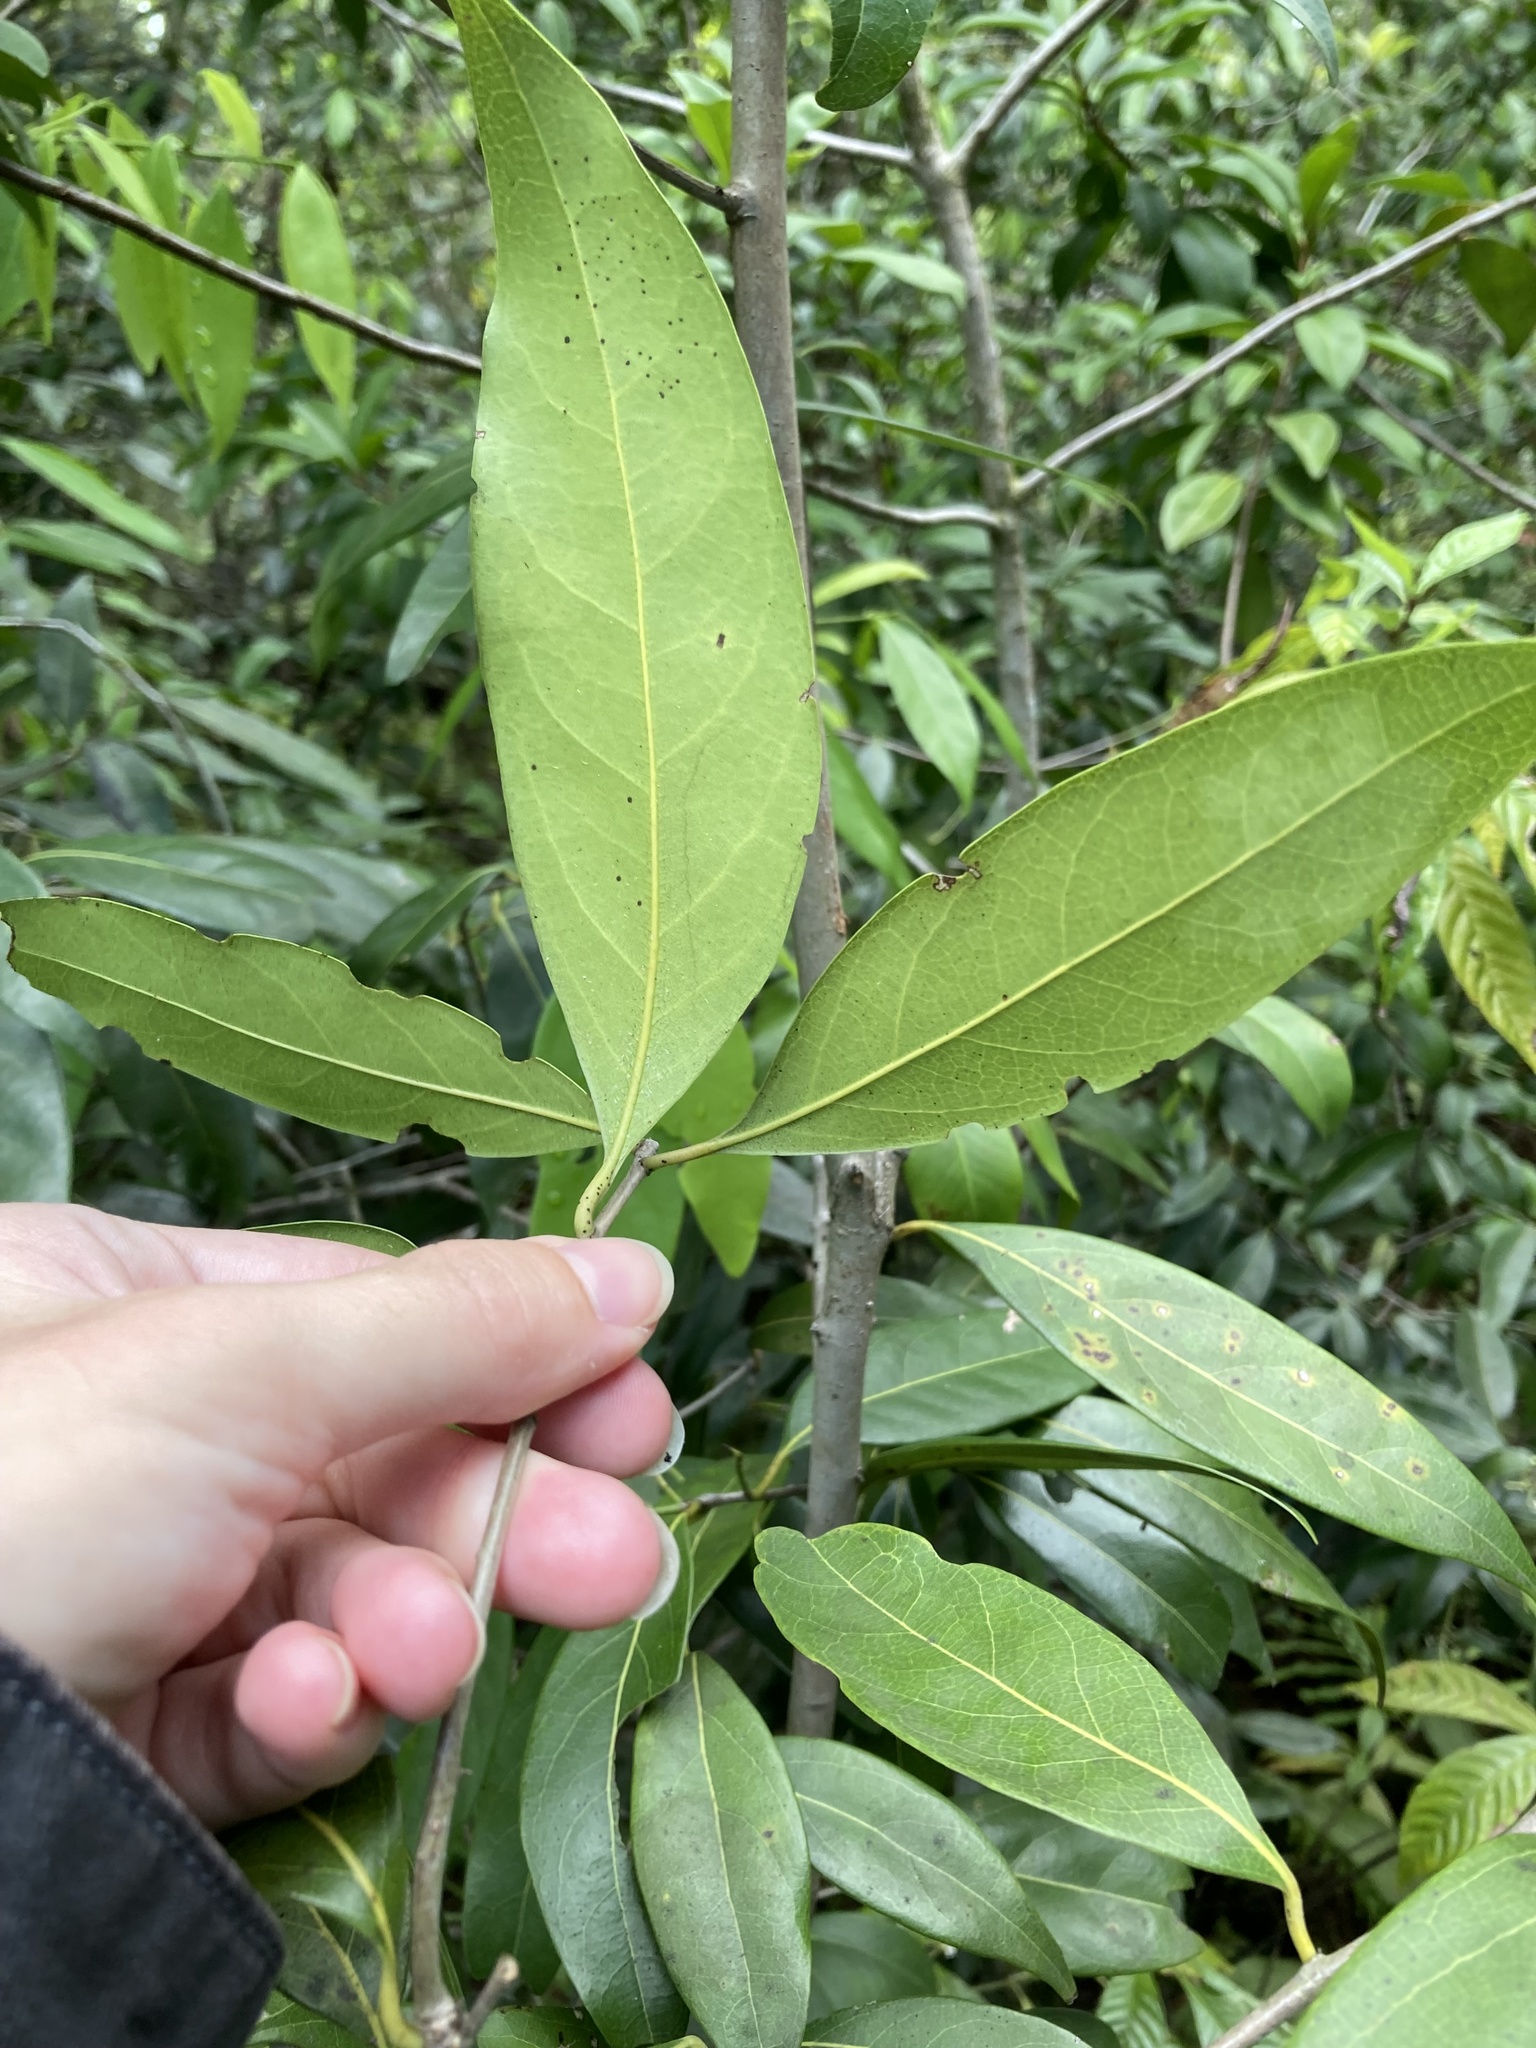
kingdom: Plantae
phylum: Tracheophyta
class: Magnoliopsida
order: Laurales
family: Lauraceae
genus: Damburneya
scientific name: Damburneya
